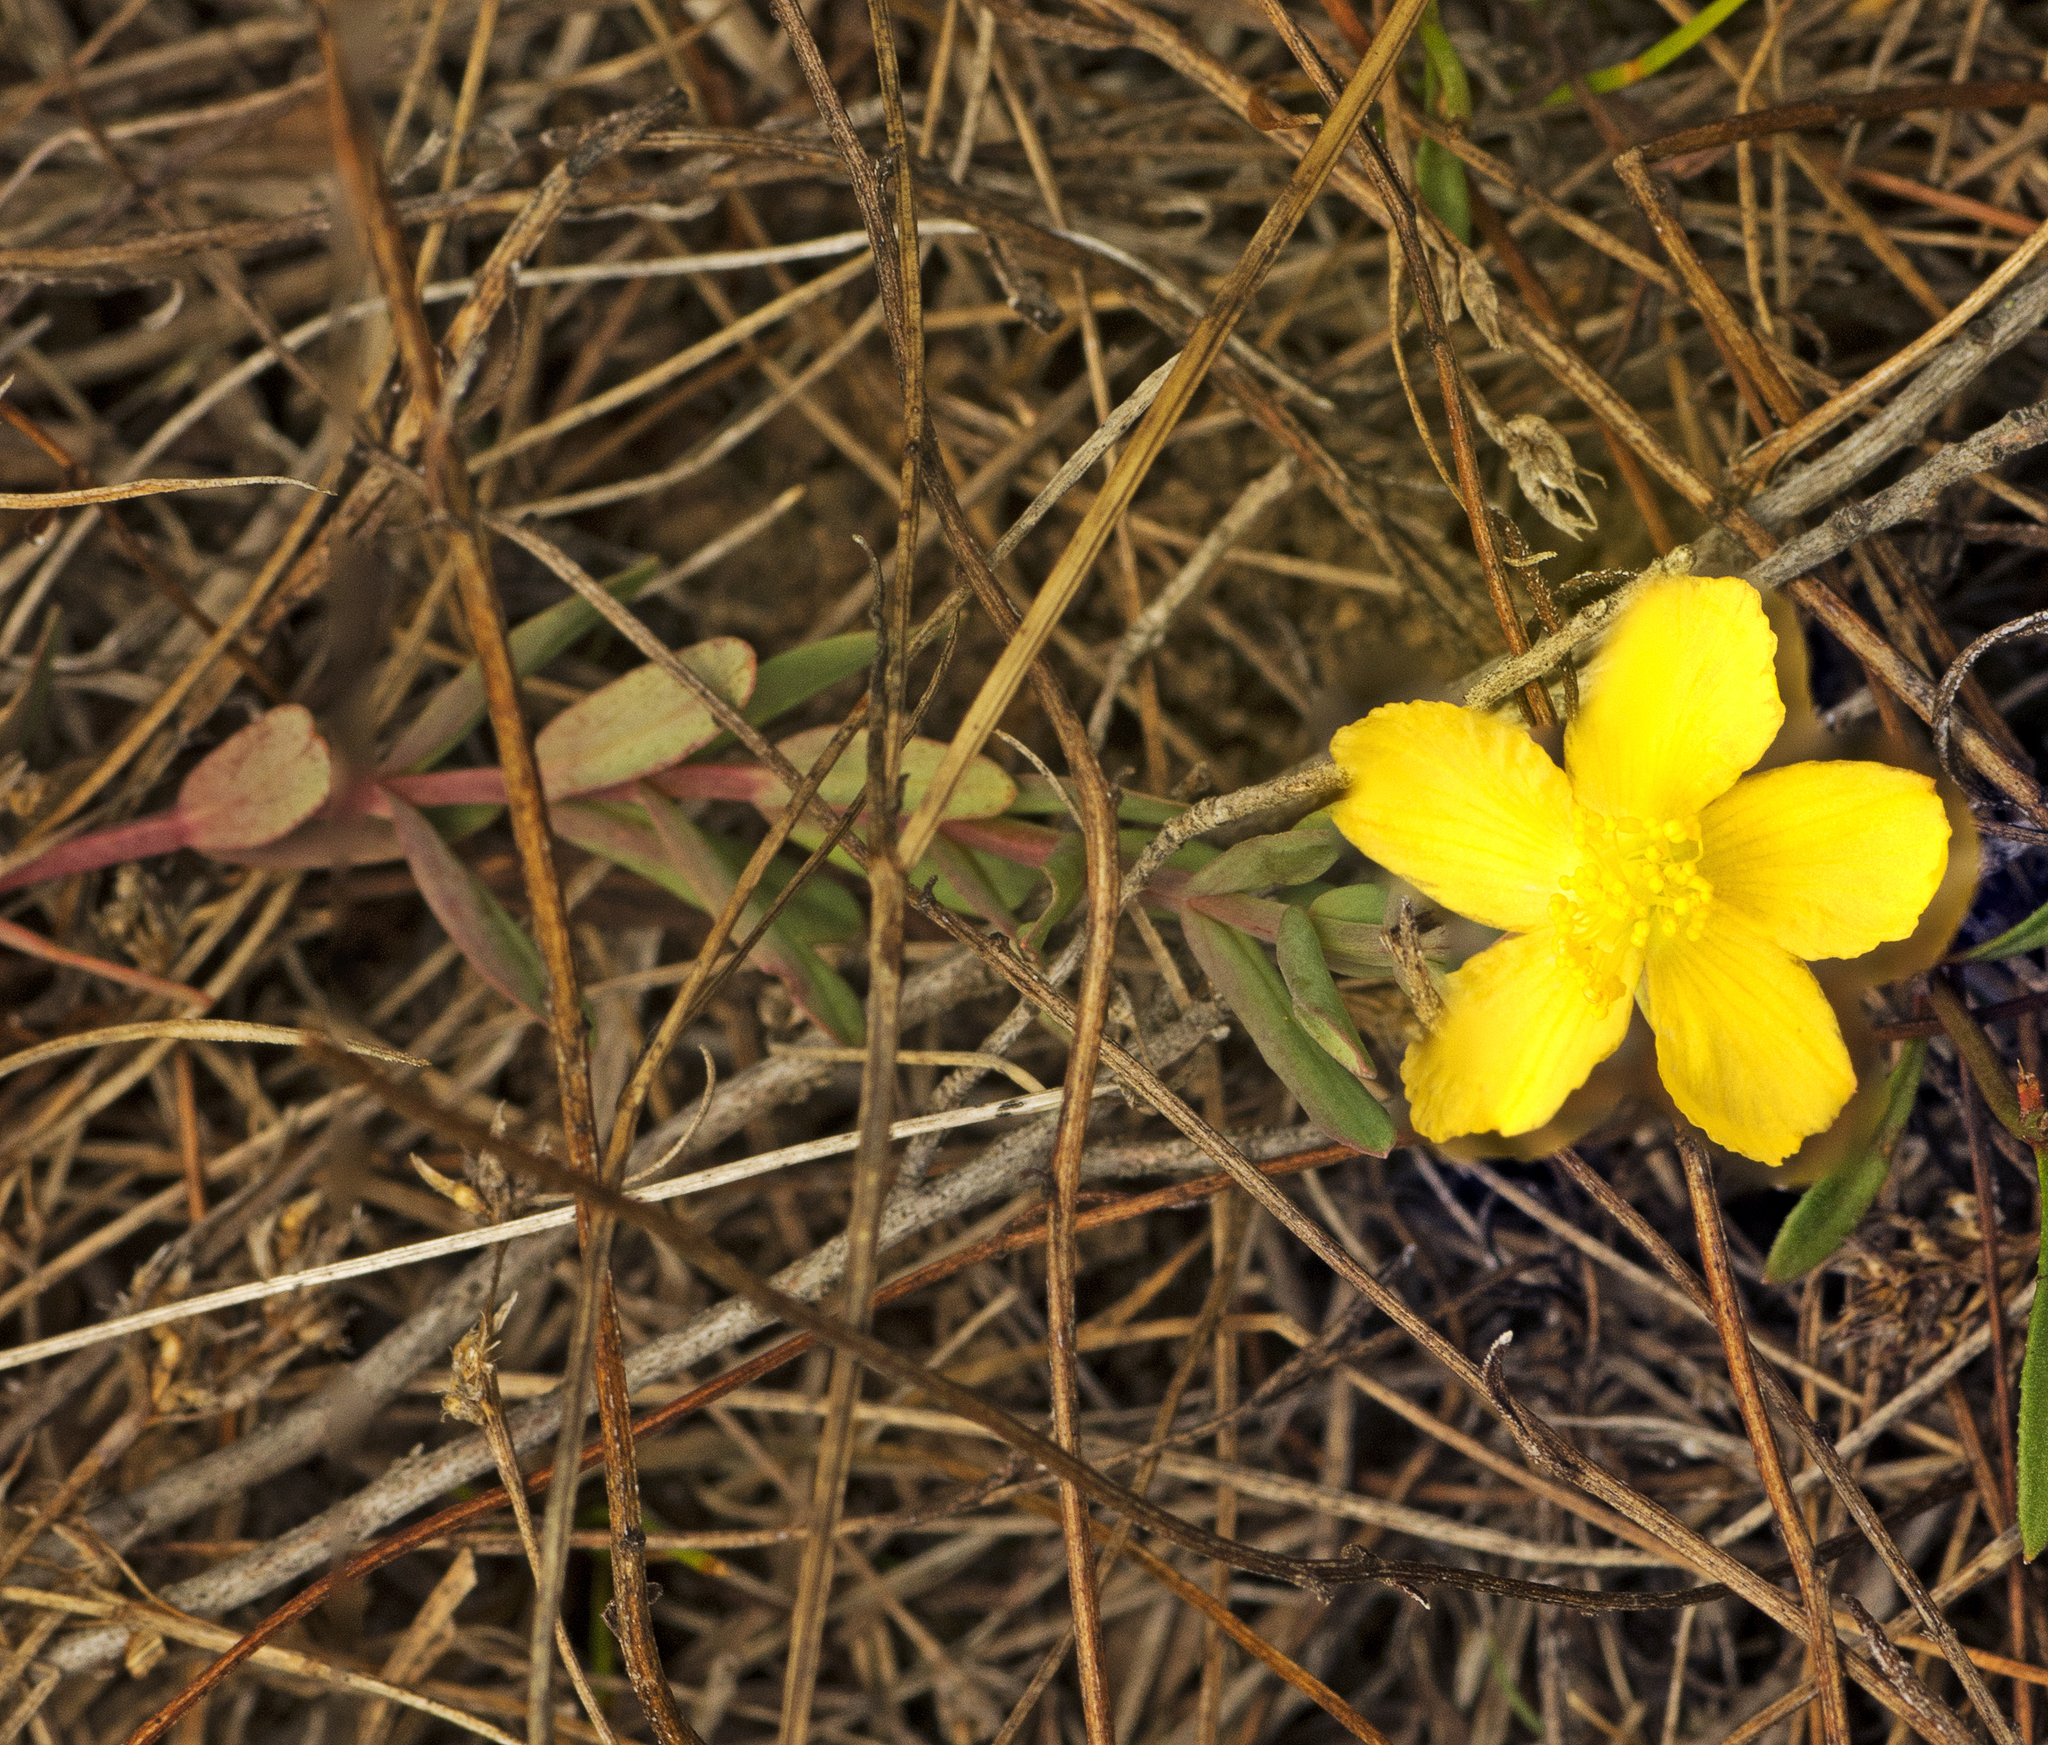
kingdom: Plantae
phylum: Tracheophyta
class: Magnoliopsida
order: Malpighiales
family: Hypericaceae
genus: Hypericum
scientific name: Hypericum perforatum
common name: Common st. johnswort
